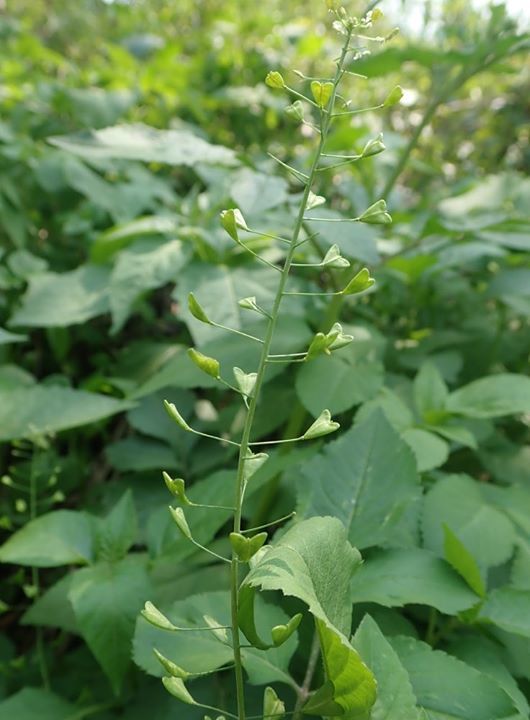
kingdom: Plantae
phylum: Tracheophyta
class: Magnoliopsida
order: Brassicales
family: Brassicaceae
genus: Capsella
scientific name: Capsella bursa-pastoris
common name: Shepherd's purse
